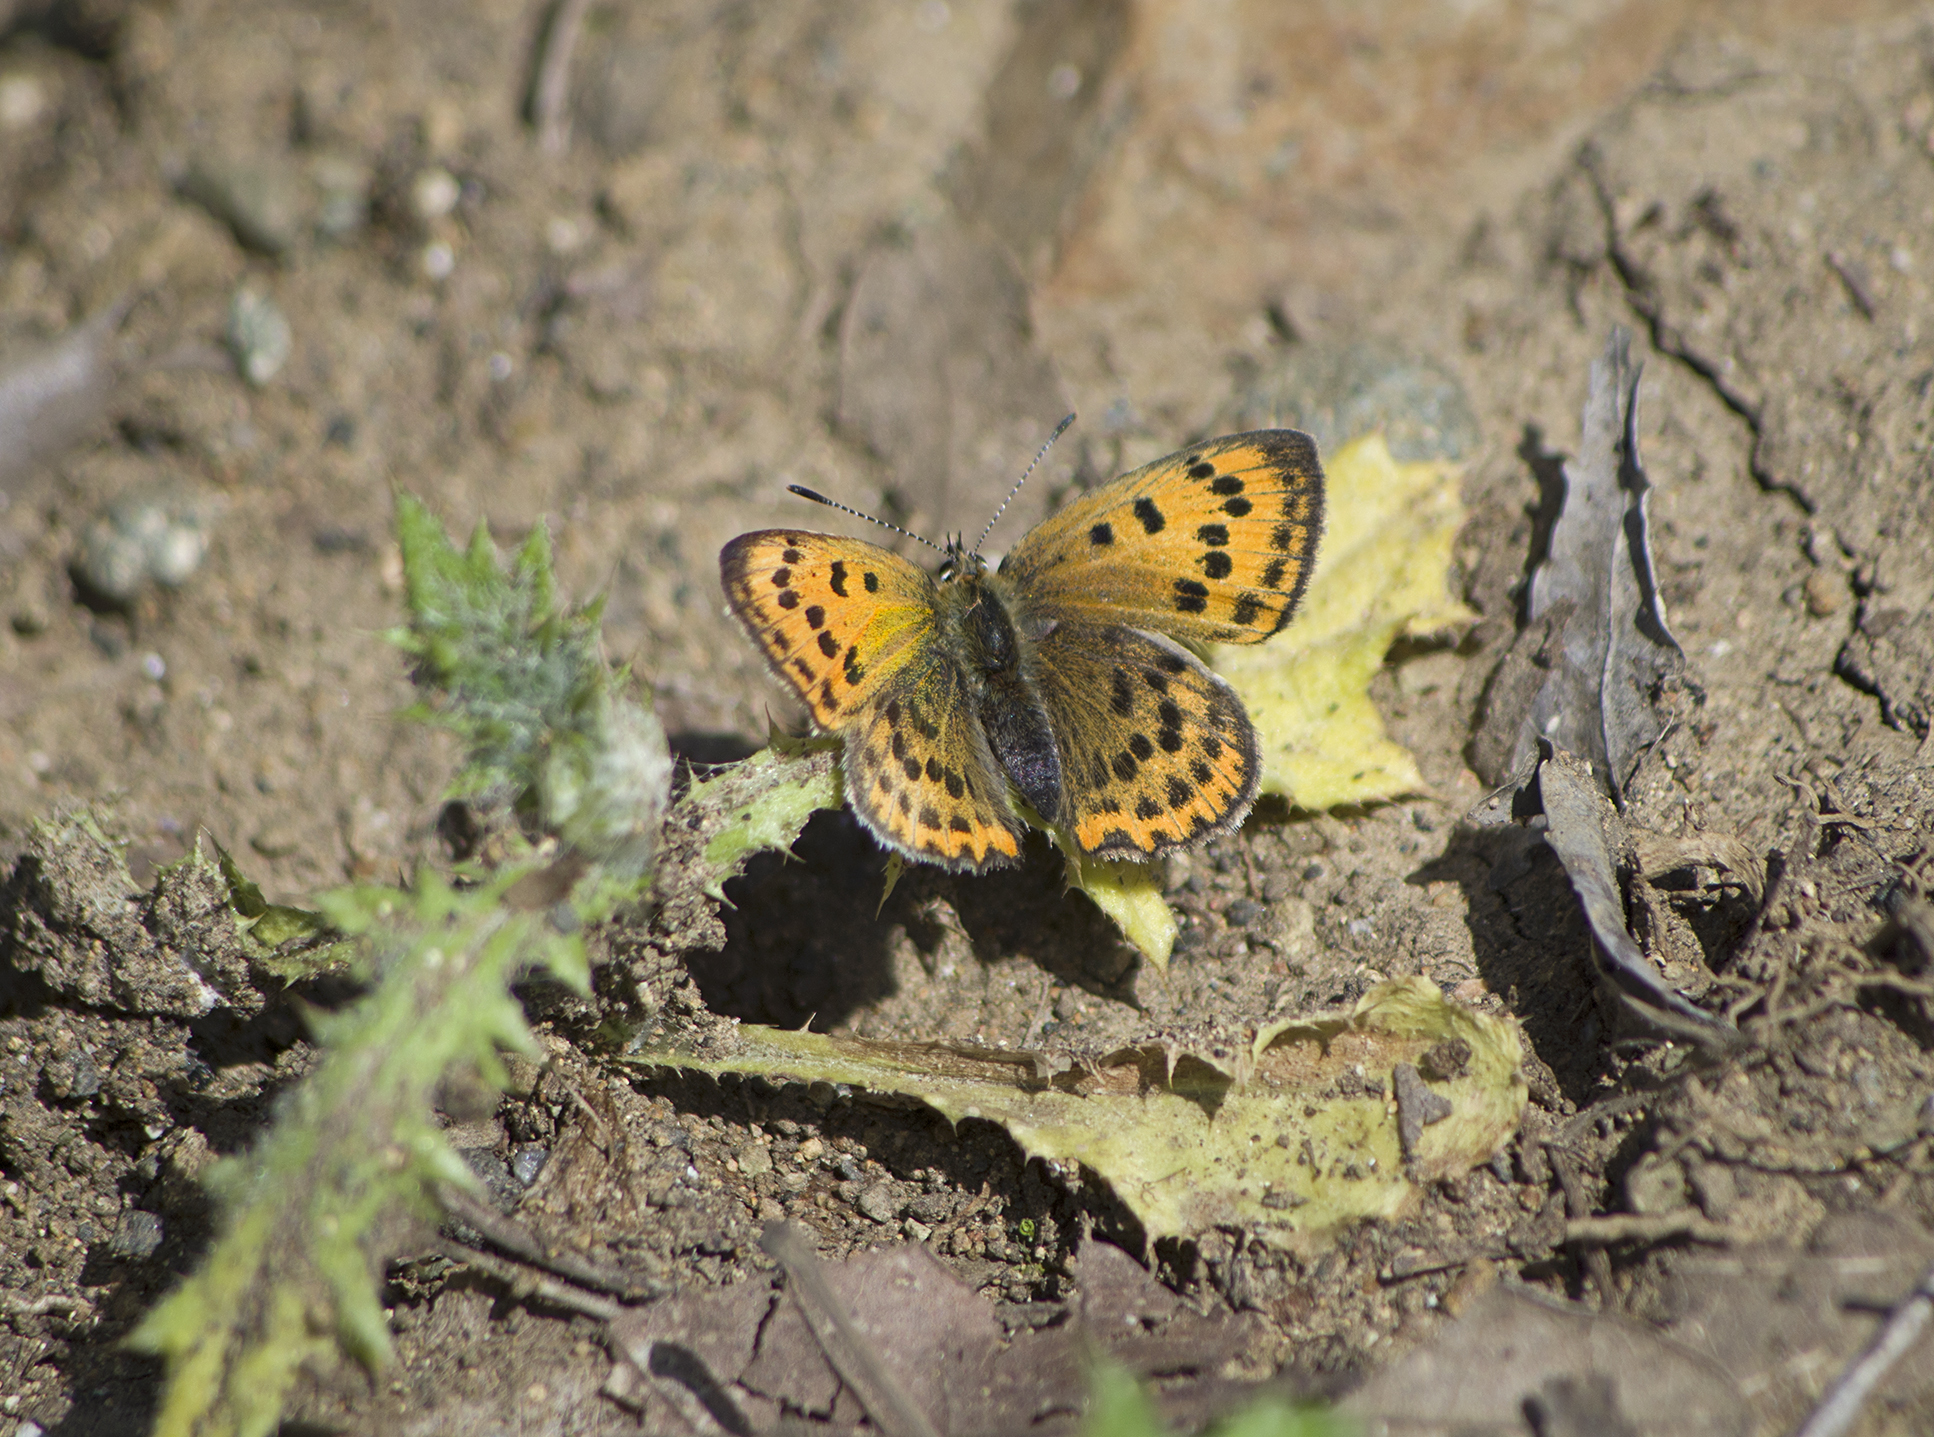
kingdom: Animalia
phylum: Arthropoda
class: Insecta
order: Lepidoptera
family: Lycaenidae
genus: Polyommatus
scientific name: Polyommatus ottomanus
